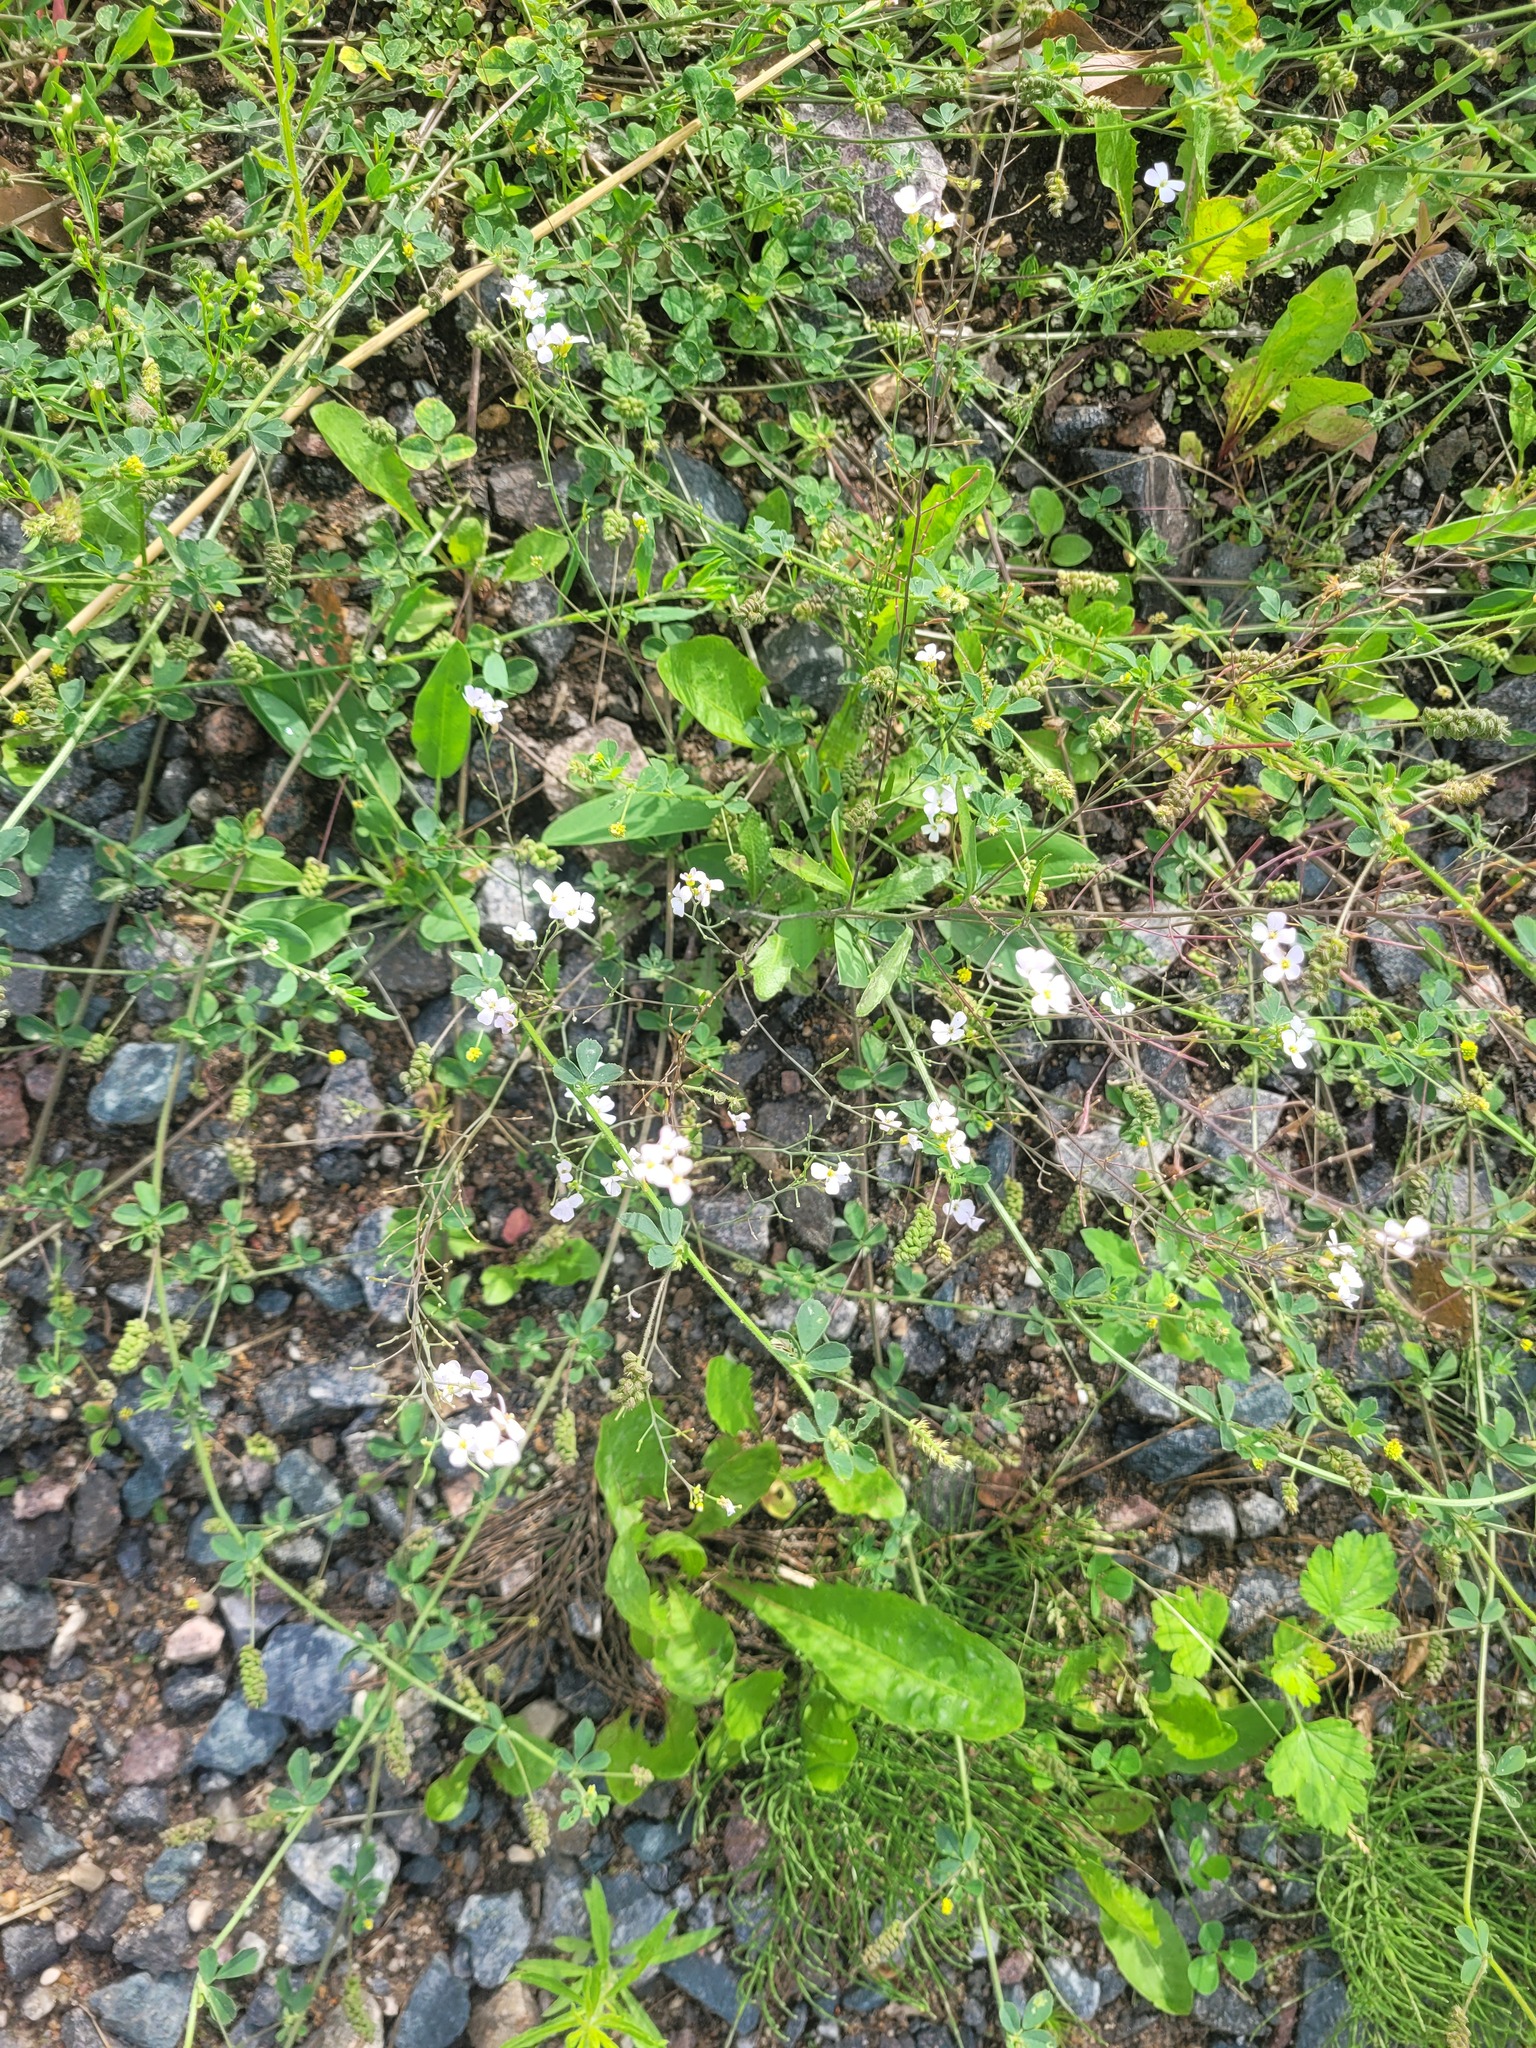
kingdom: Plantae
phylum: Tracheophyta
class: Magnoliopsida
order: Brassicales
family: Brassicaceae
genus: Arabidopsis
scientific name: Arabidopsis arenosa
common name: Sand rock-cress
